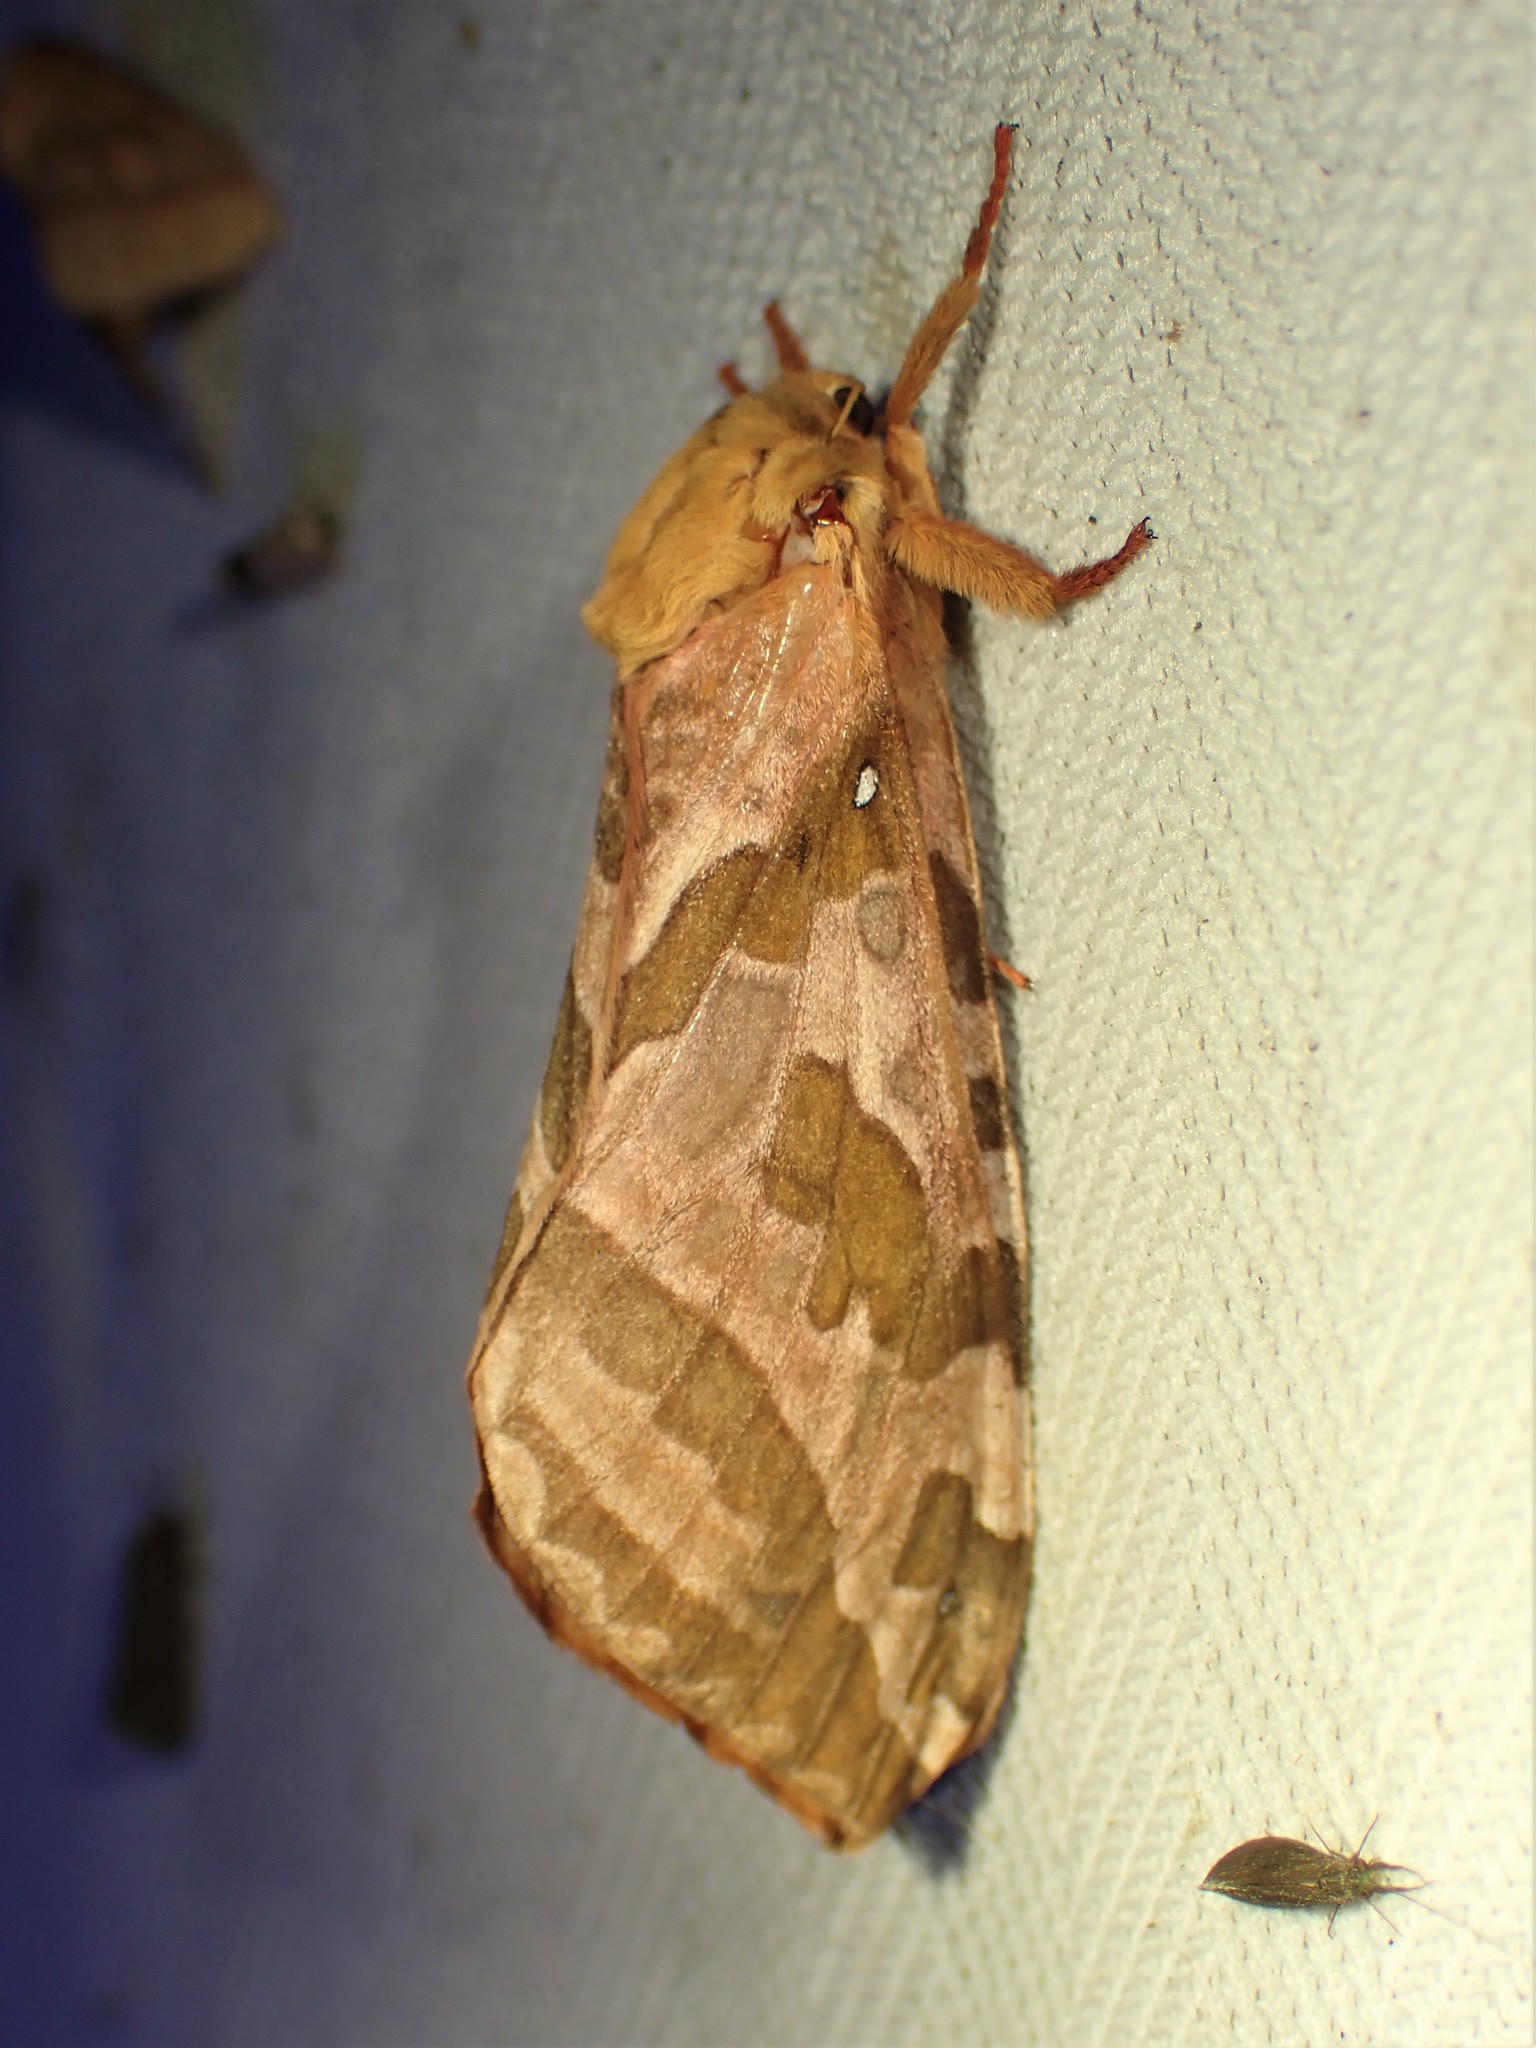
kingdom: Animalia
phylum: Arthropoda
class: Insecta
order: Lepidoptera
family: Hepialidae
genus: Sthenopis
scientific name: Sthenopis purpurascens
